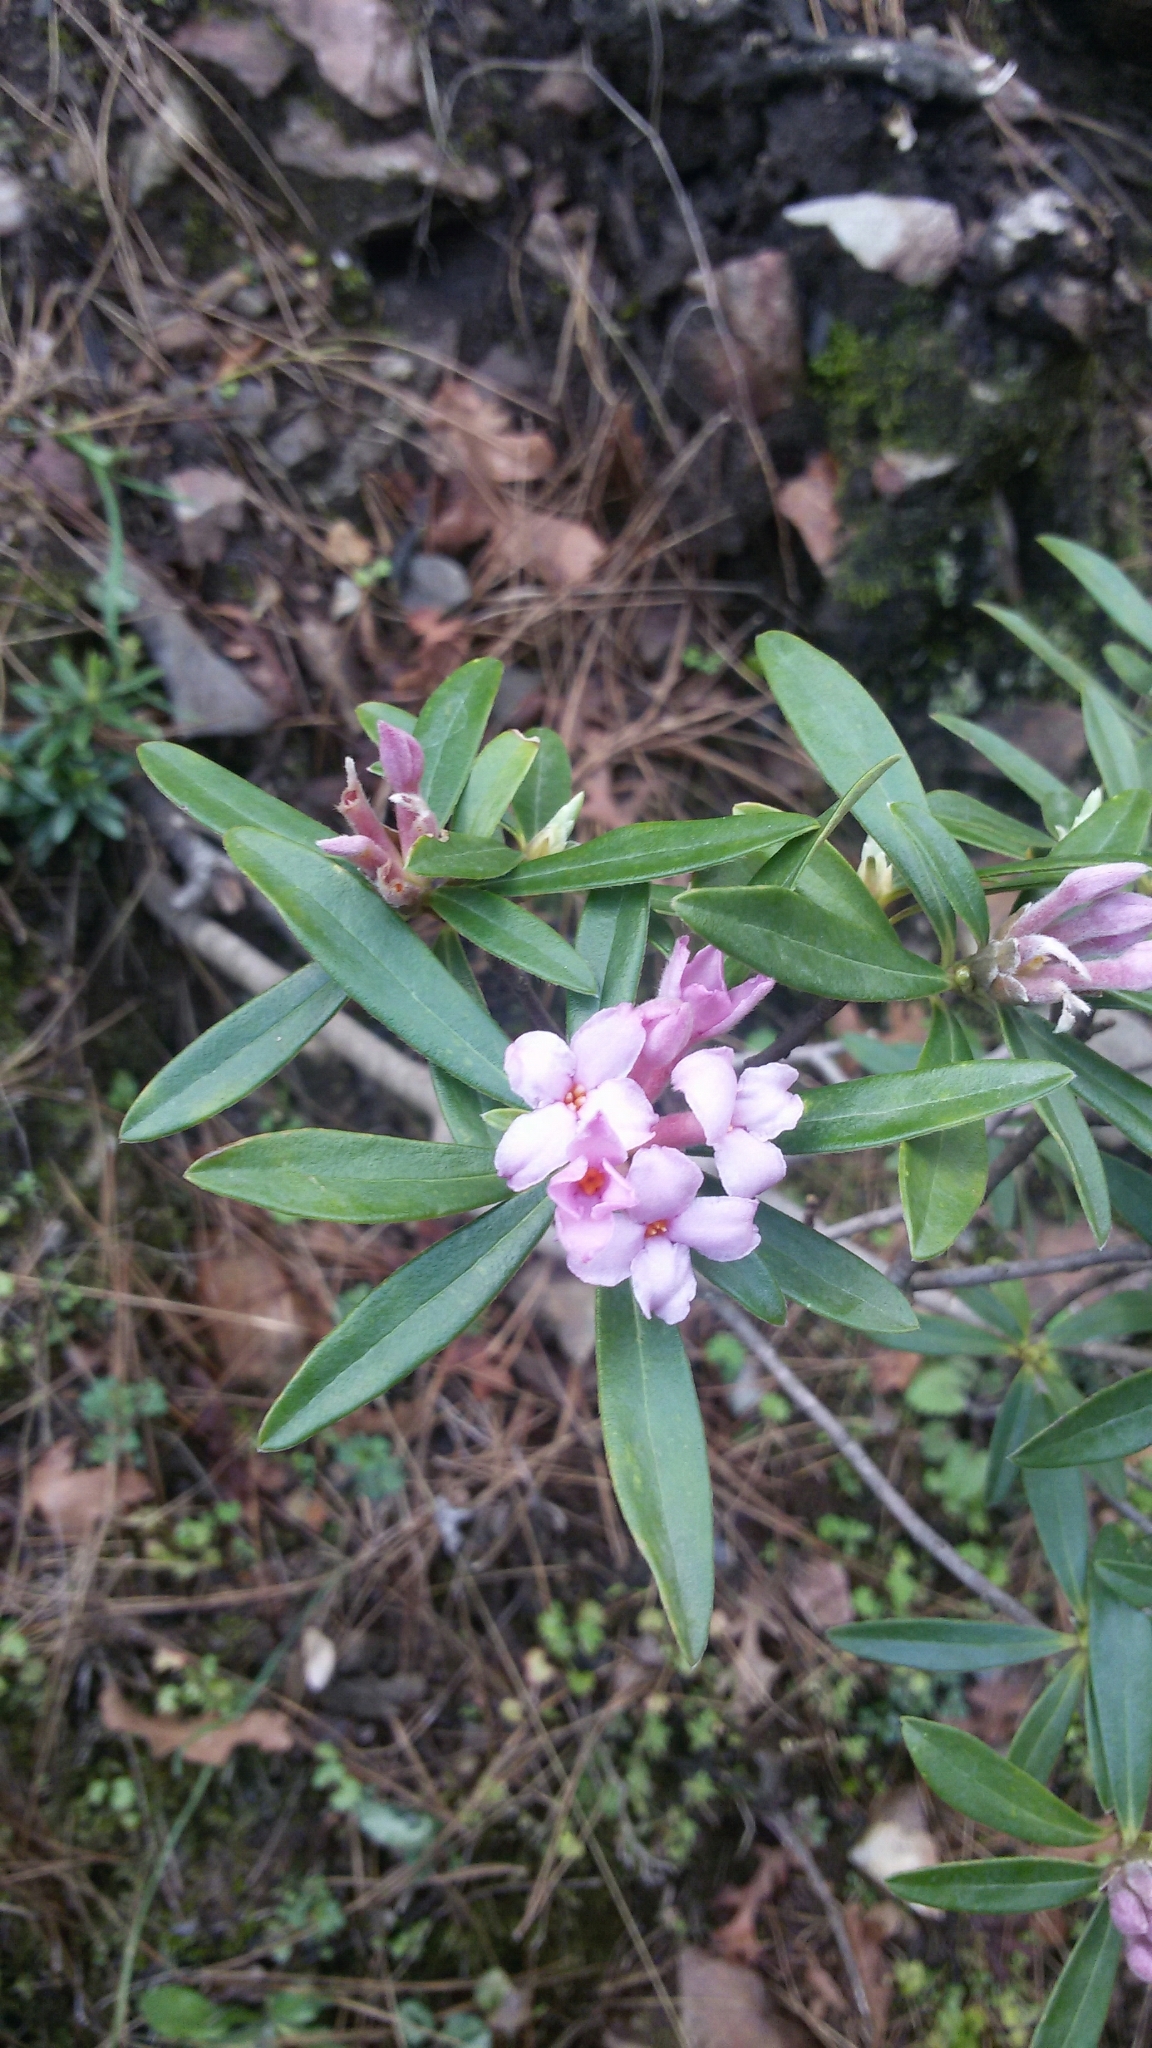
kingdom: Plantae
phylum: Tracheophyta
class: Magnoliopsida
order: Malvales
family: Thymelaeaceae
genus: Daphne
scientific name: Daphne sericea
